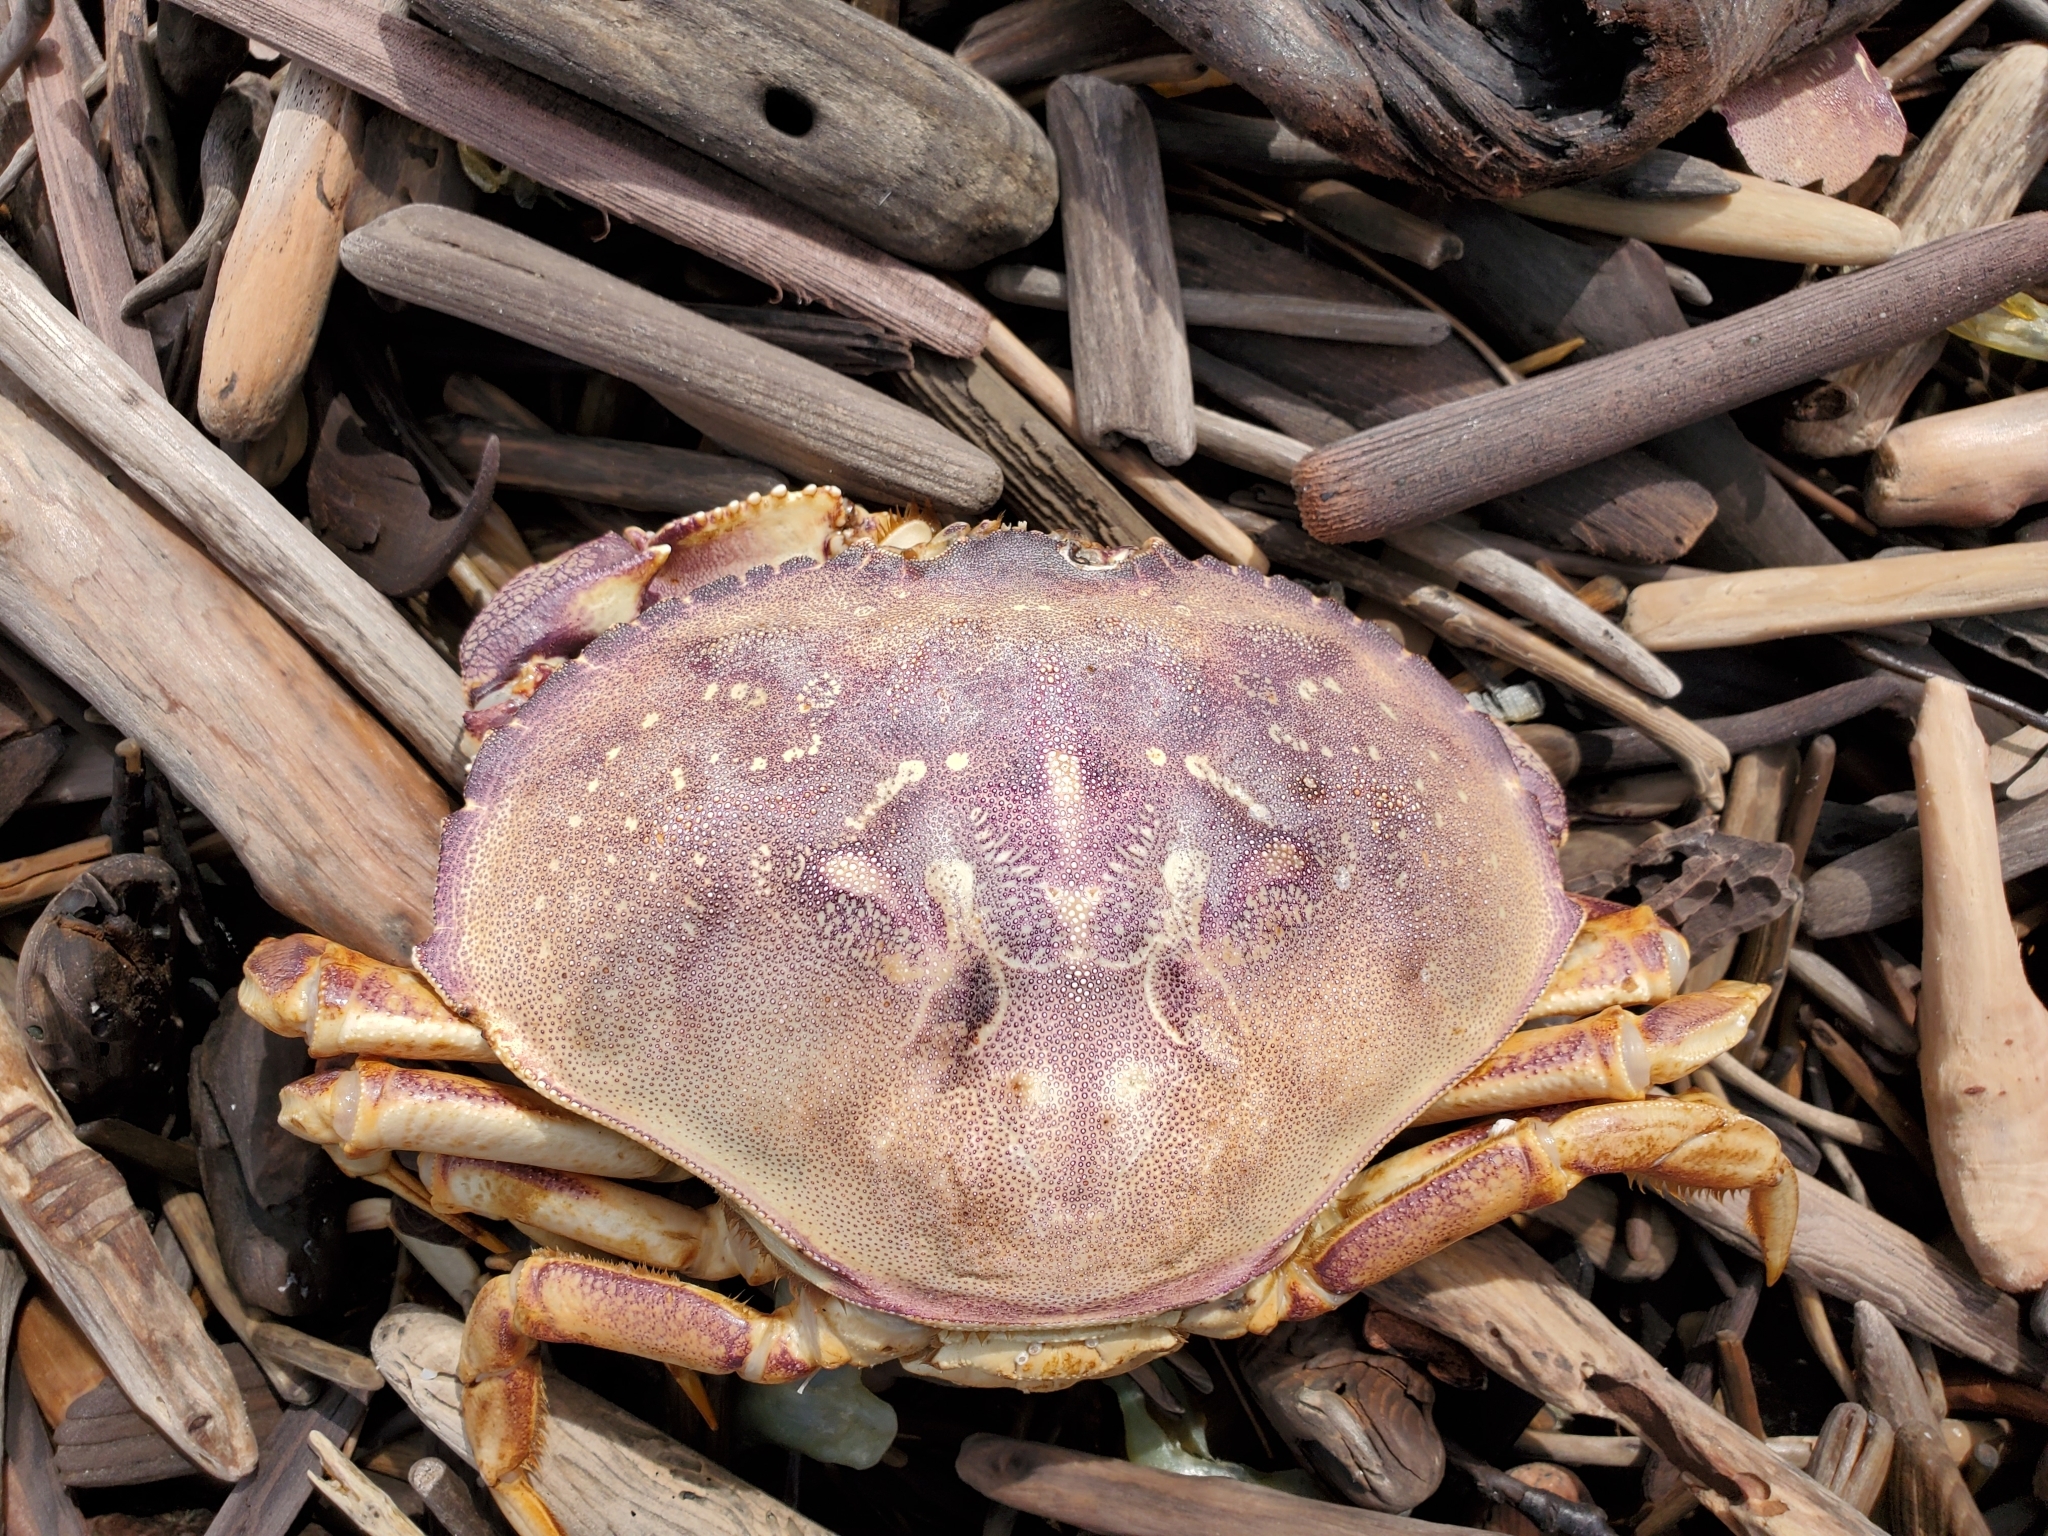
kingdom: Animalia
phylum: Arthropoda
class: Malacostraca
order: Decapoda
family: Cancridae
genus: Metacarcinus
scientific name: Metacarcinus magister
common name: Californian crab
